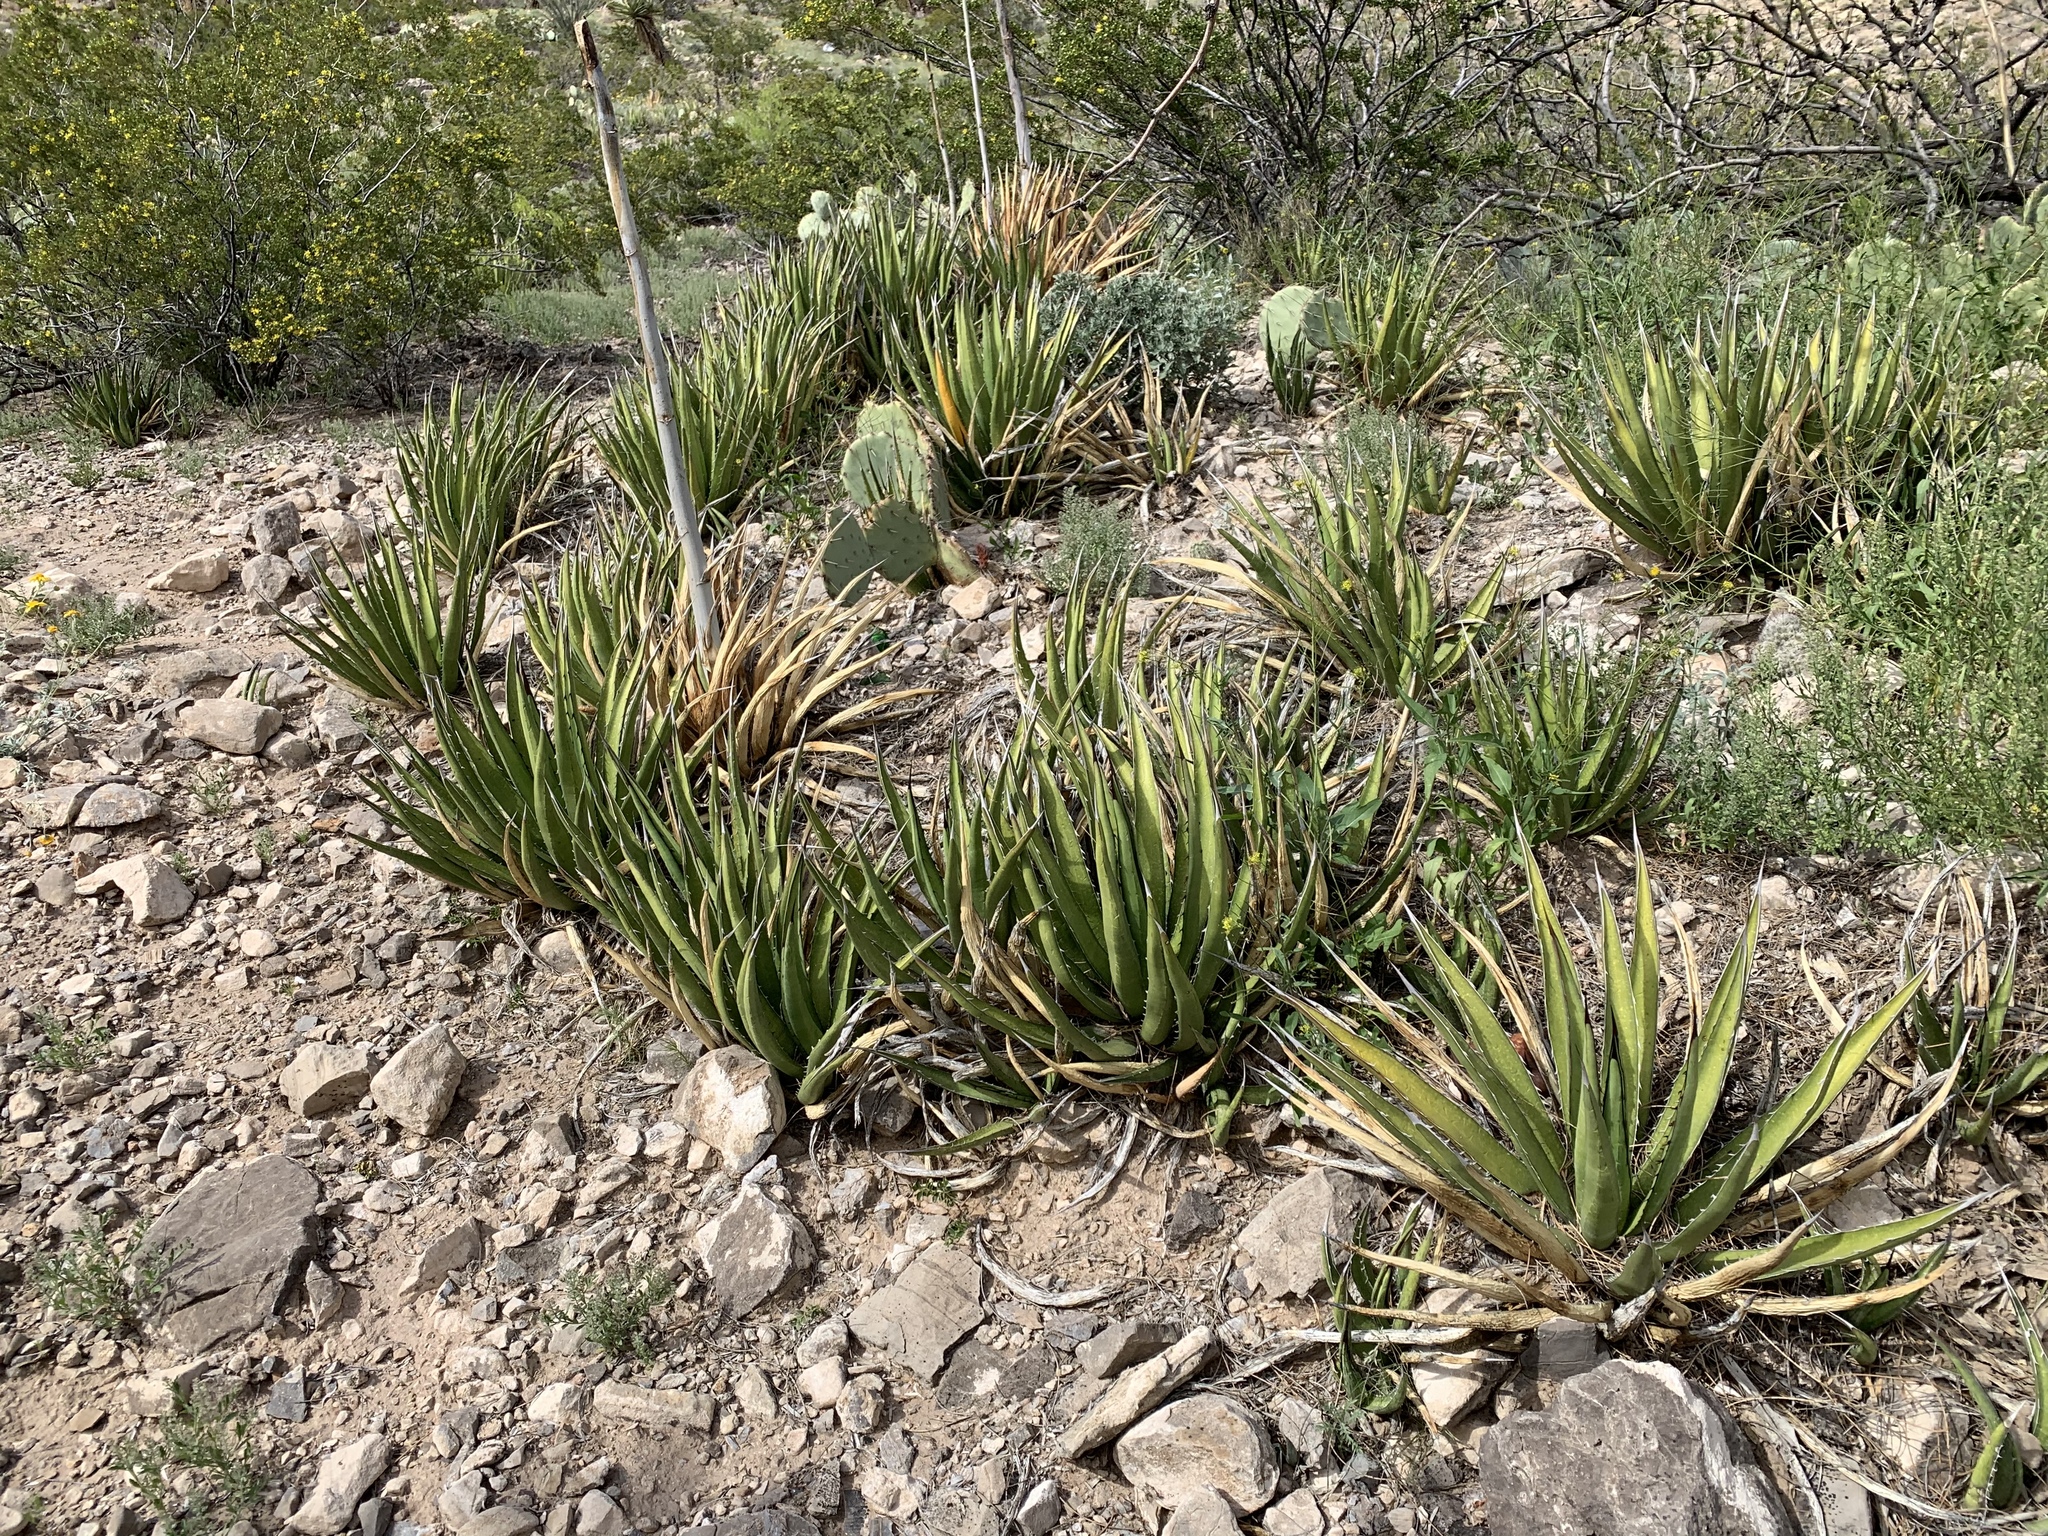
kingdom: Plantae
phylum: Tracheophyta
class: Liliopsida
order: Asparagales
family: Asparagaceae
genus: Agave
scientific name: Agave lechuguilla
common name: Lecheguilla agave
